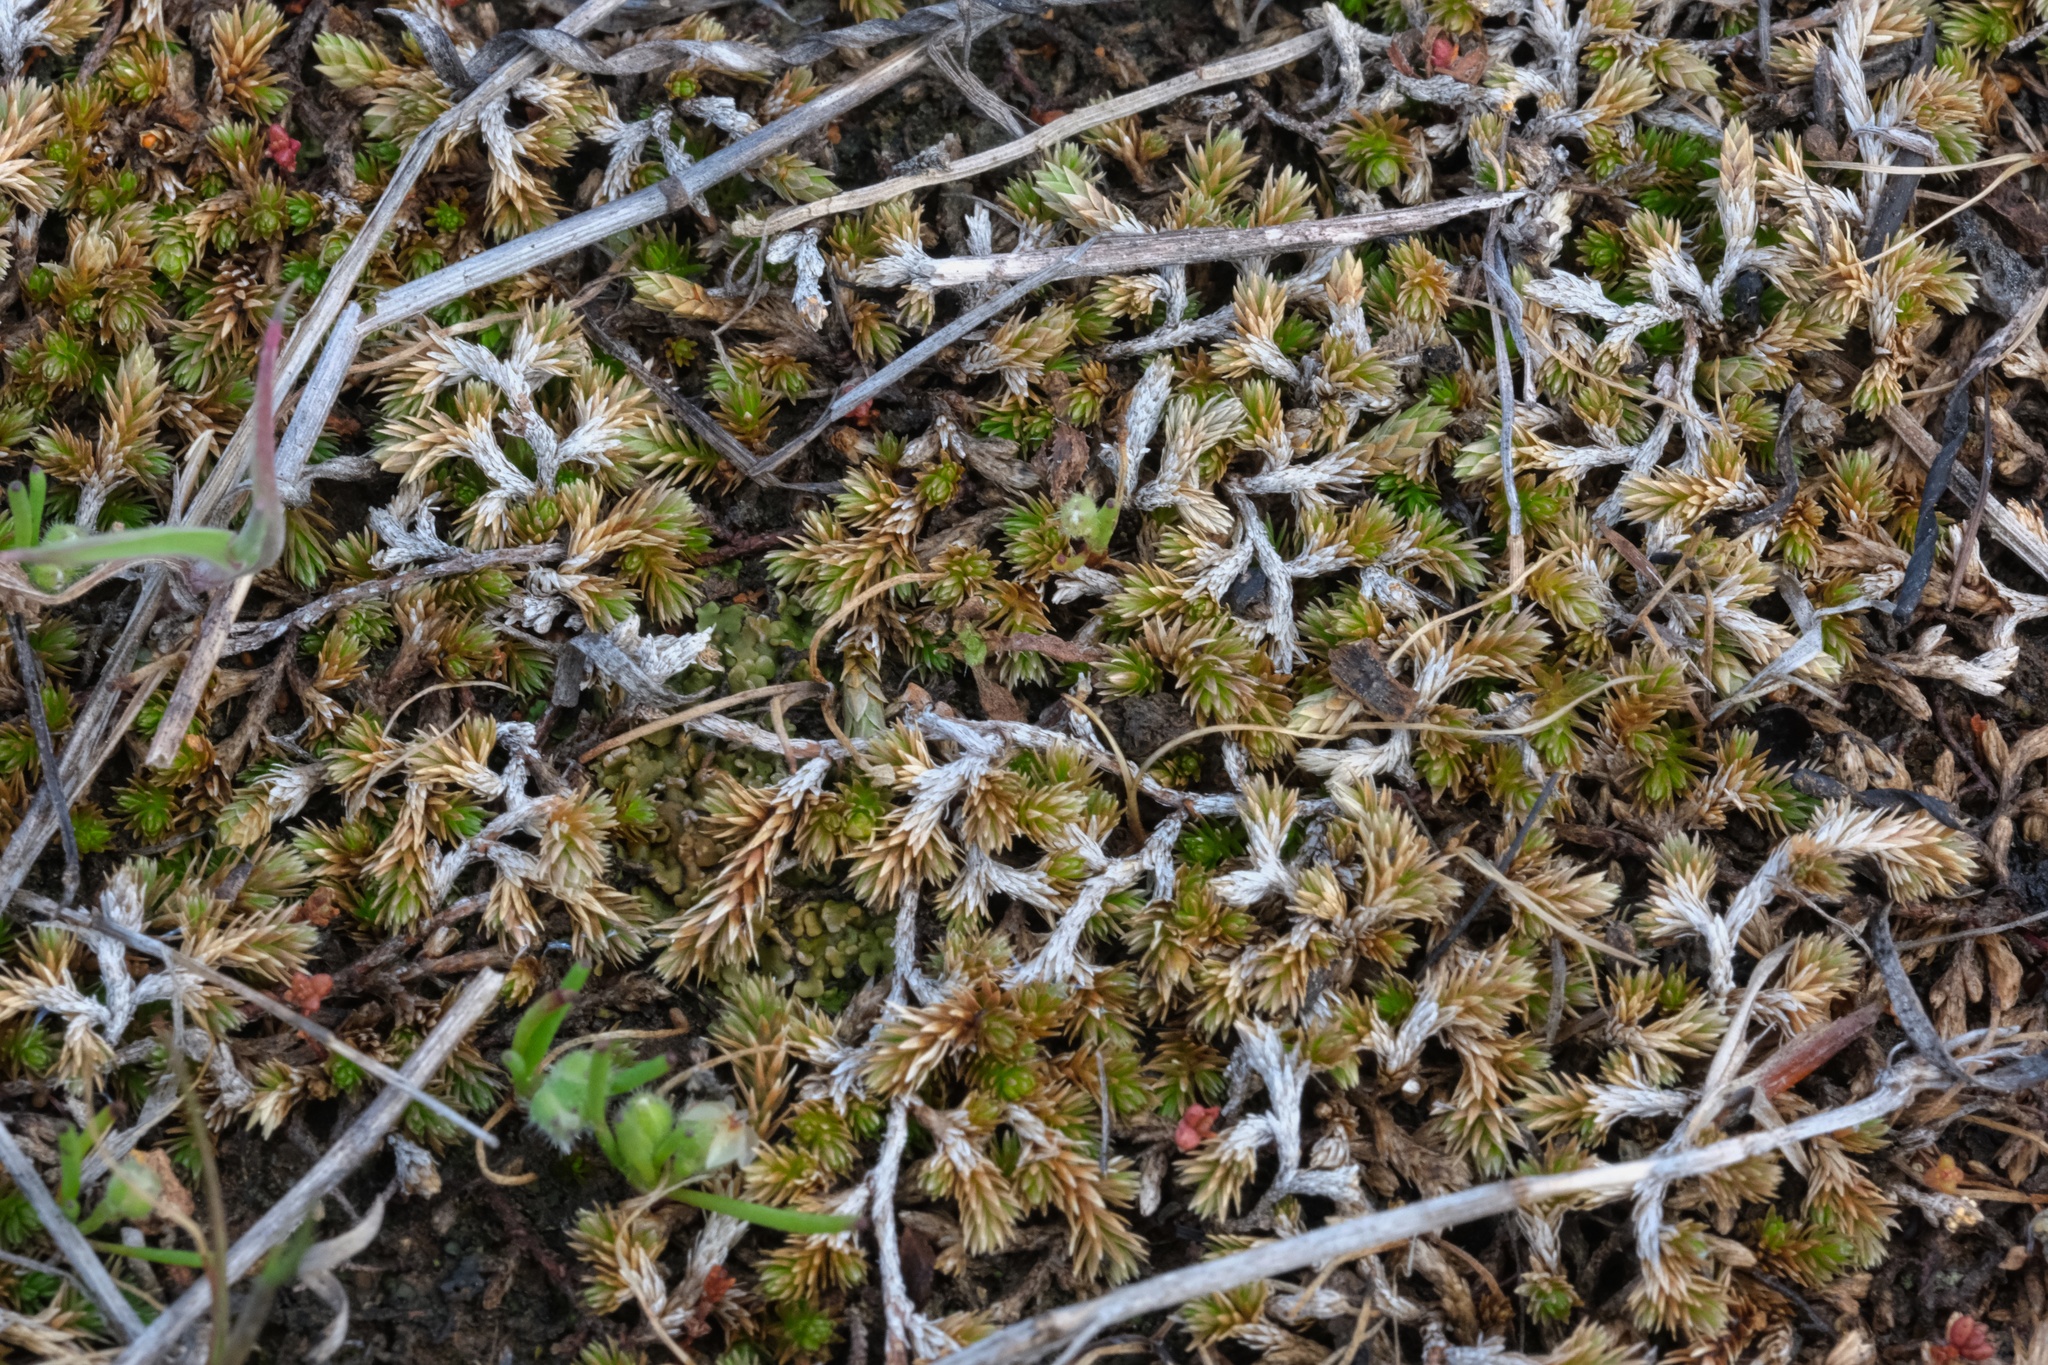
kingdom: Plantae
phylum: Tracheophyta
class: Lycopodiopsida
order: Selaginellales
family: Selaginellaceae
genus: Selaginella
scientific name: Selaginella cinerascens
